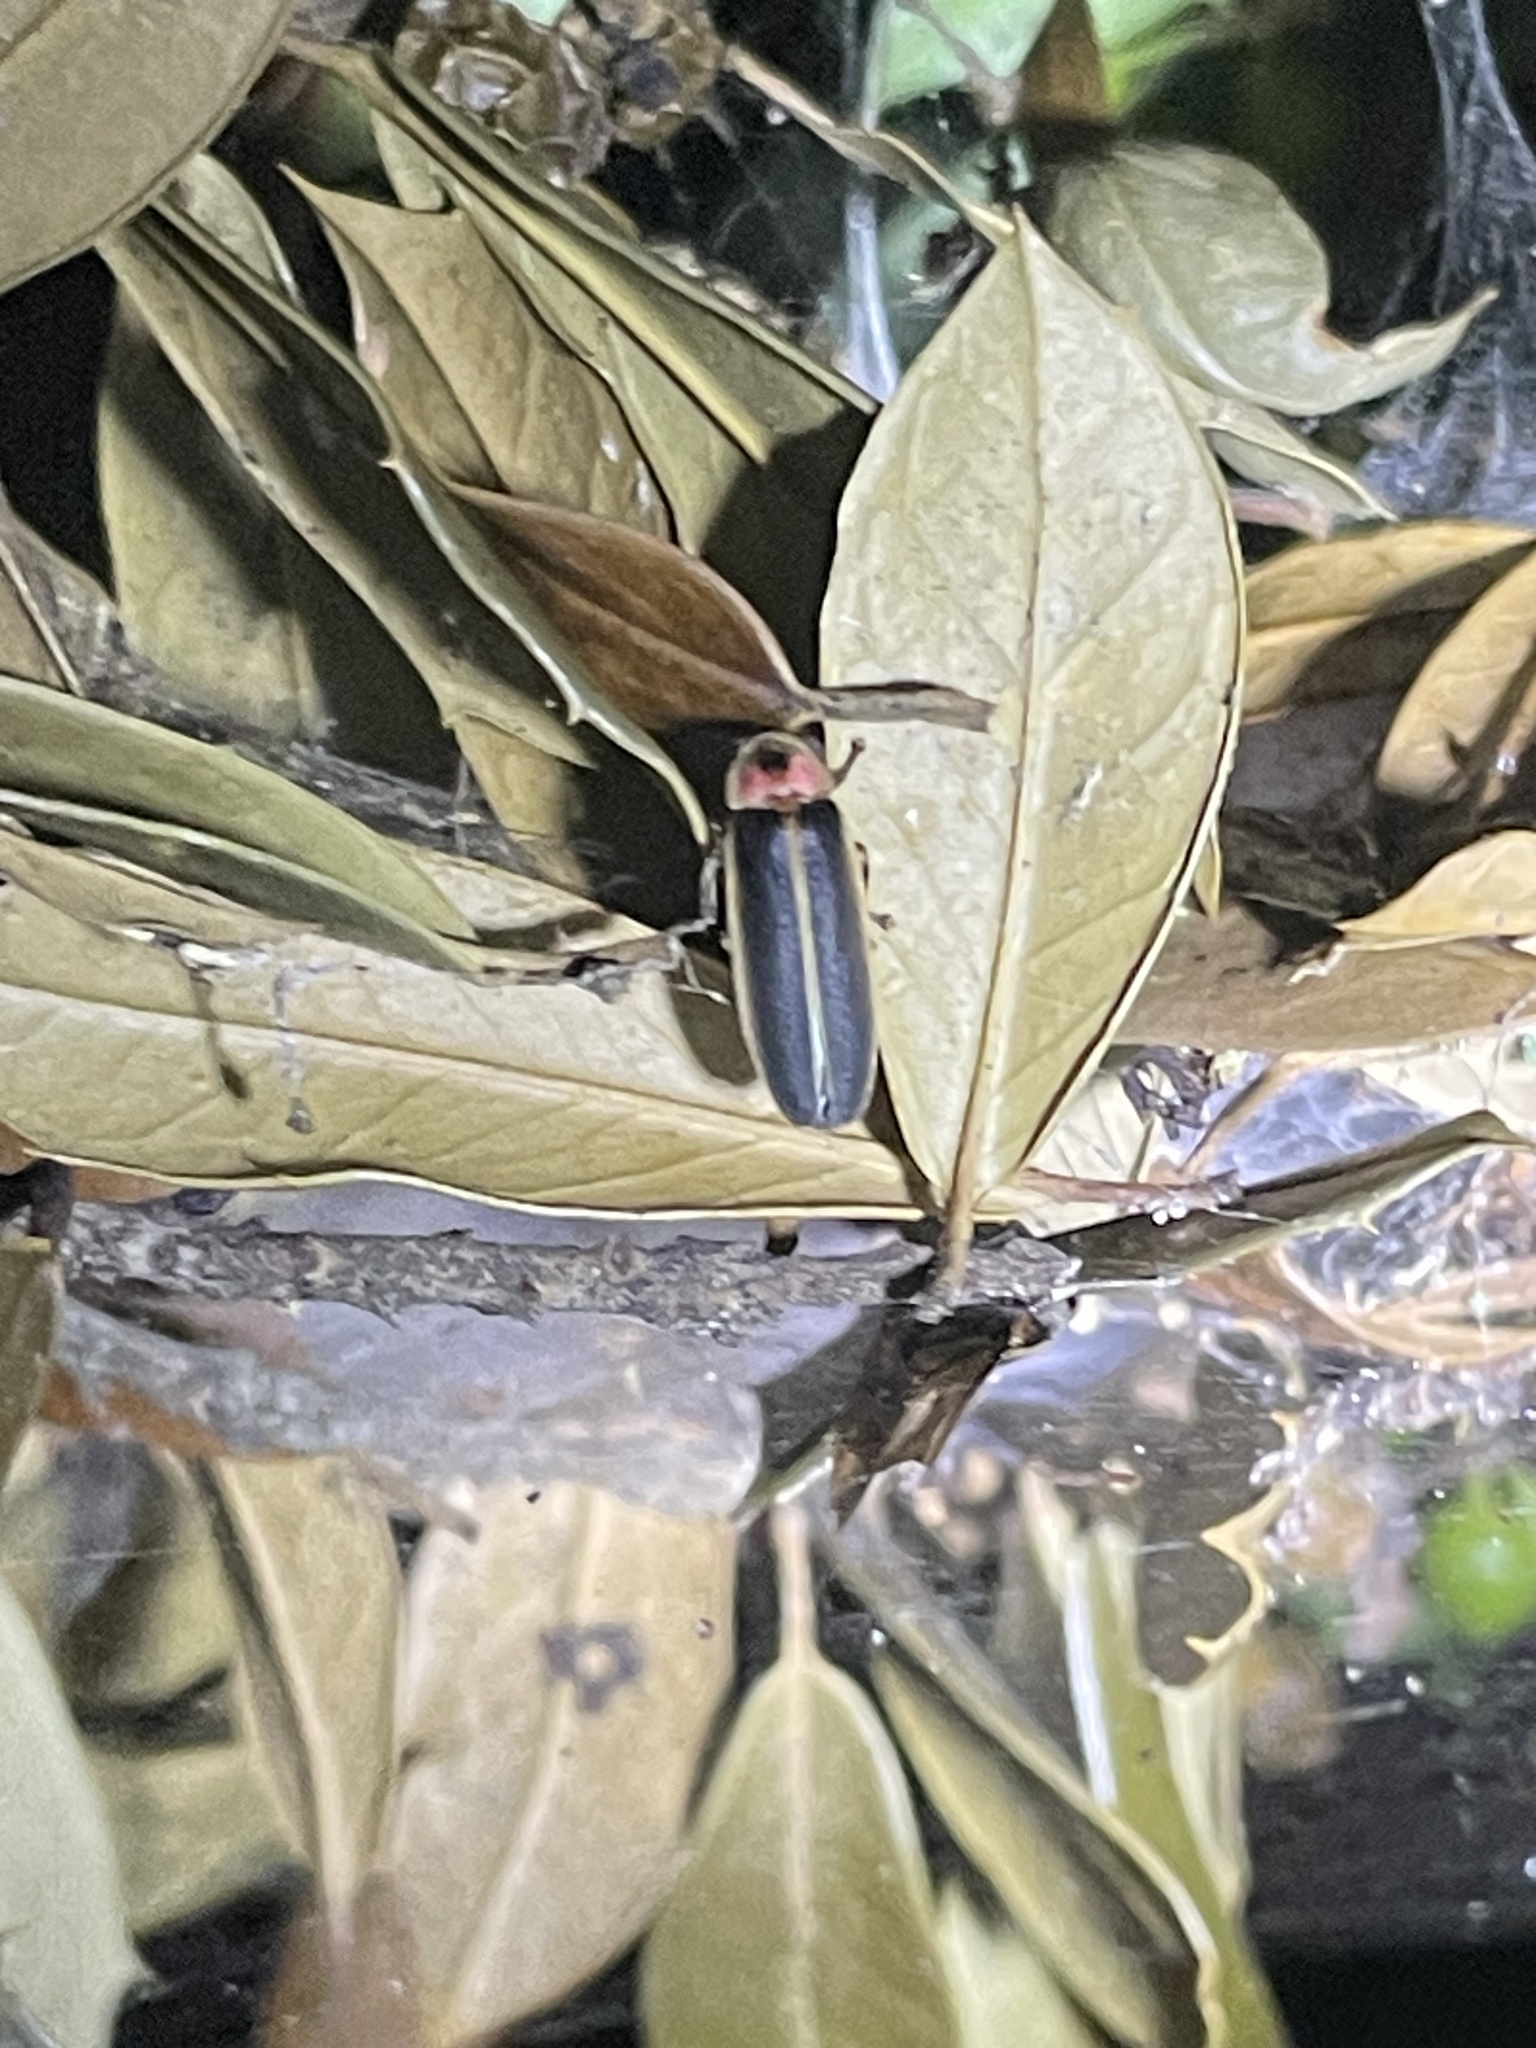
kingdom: Animalia
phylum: Arthropoda
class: Insecta
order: Coleoptera
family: Lampyridae
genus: Photinus
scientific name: Photinus pyralis
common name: Big dipper firefly
